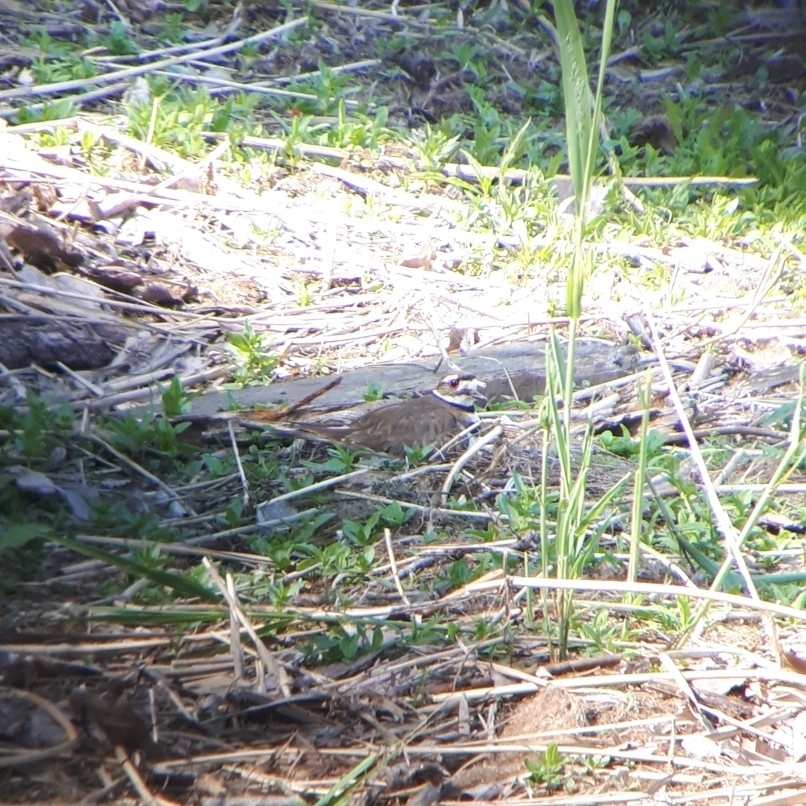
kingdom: Animalia
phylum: Chordata
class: Aves
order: Charadriiformes
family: Charadriidae
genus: Charadrius
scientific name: Charadrius vociferus
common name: Killdeer
